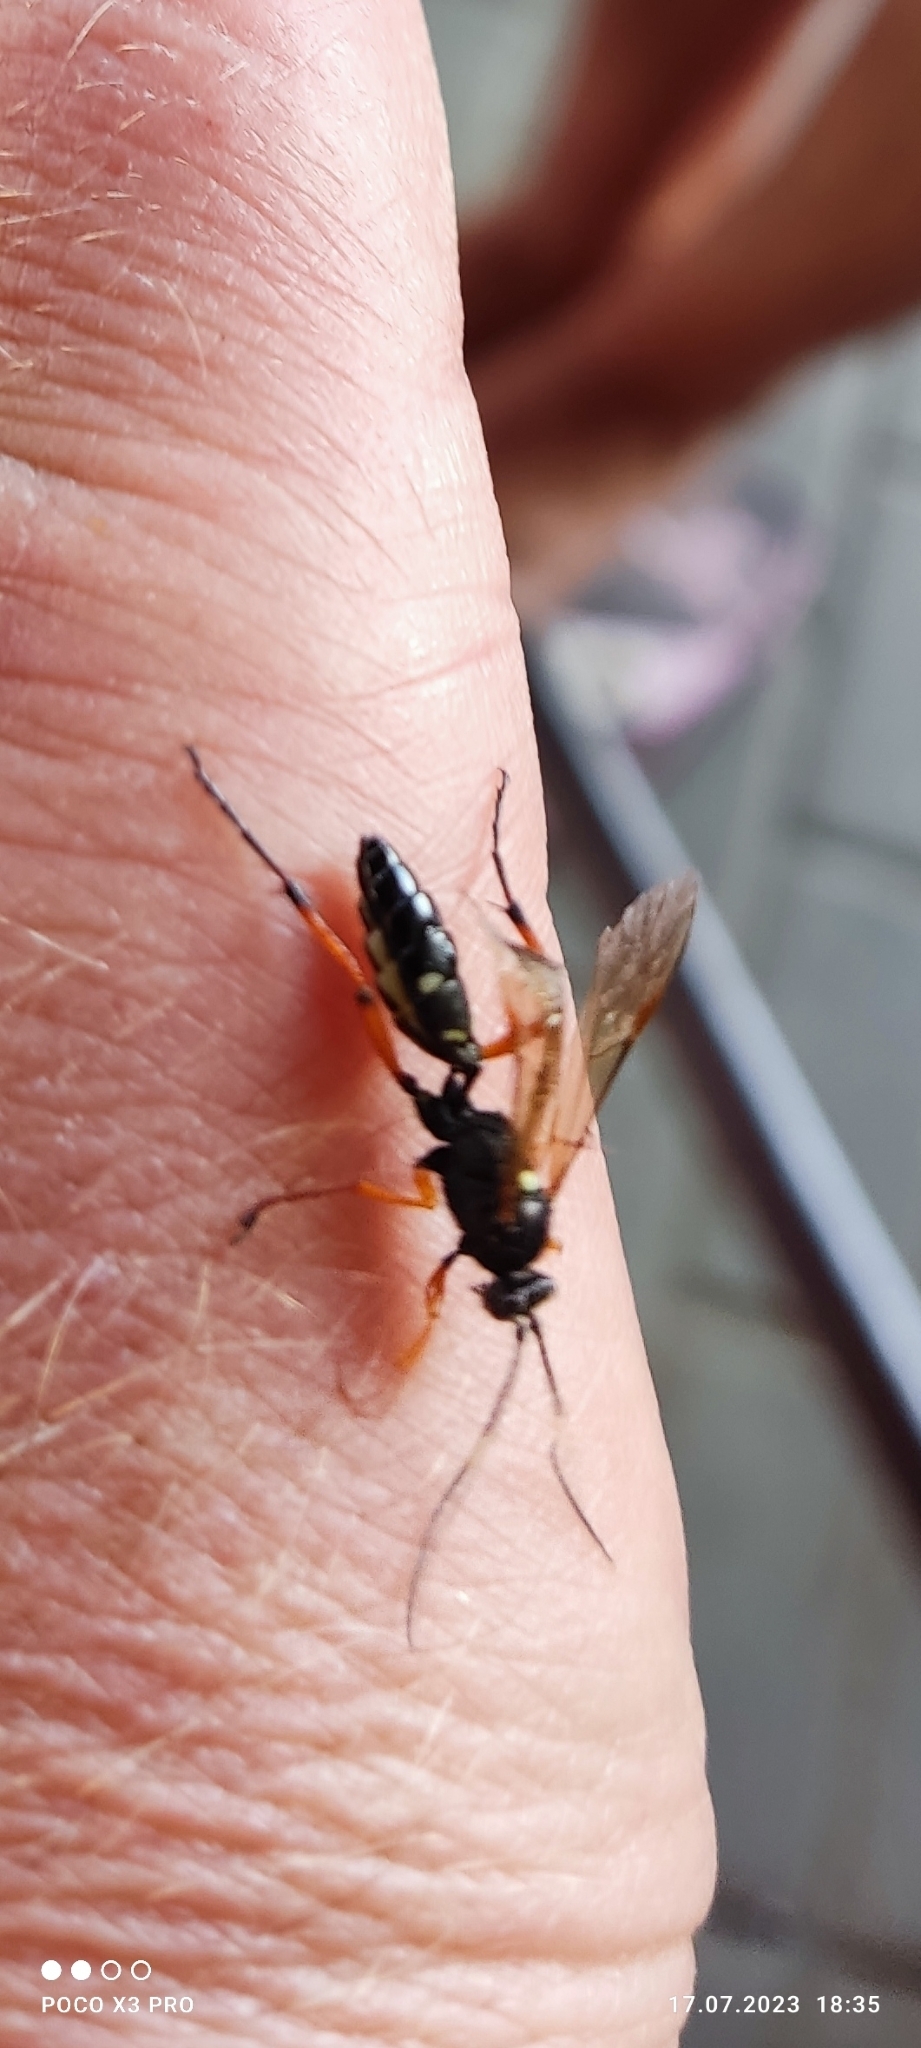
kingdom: Animalia
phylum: Arthropoda
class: Insecta
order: Hymenoptera
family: Ichneumonidae
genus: Diphyus
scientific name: Diphyus quadripunctorius
